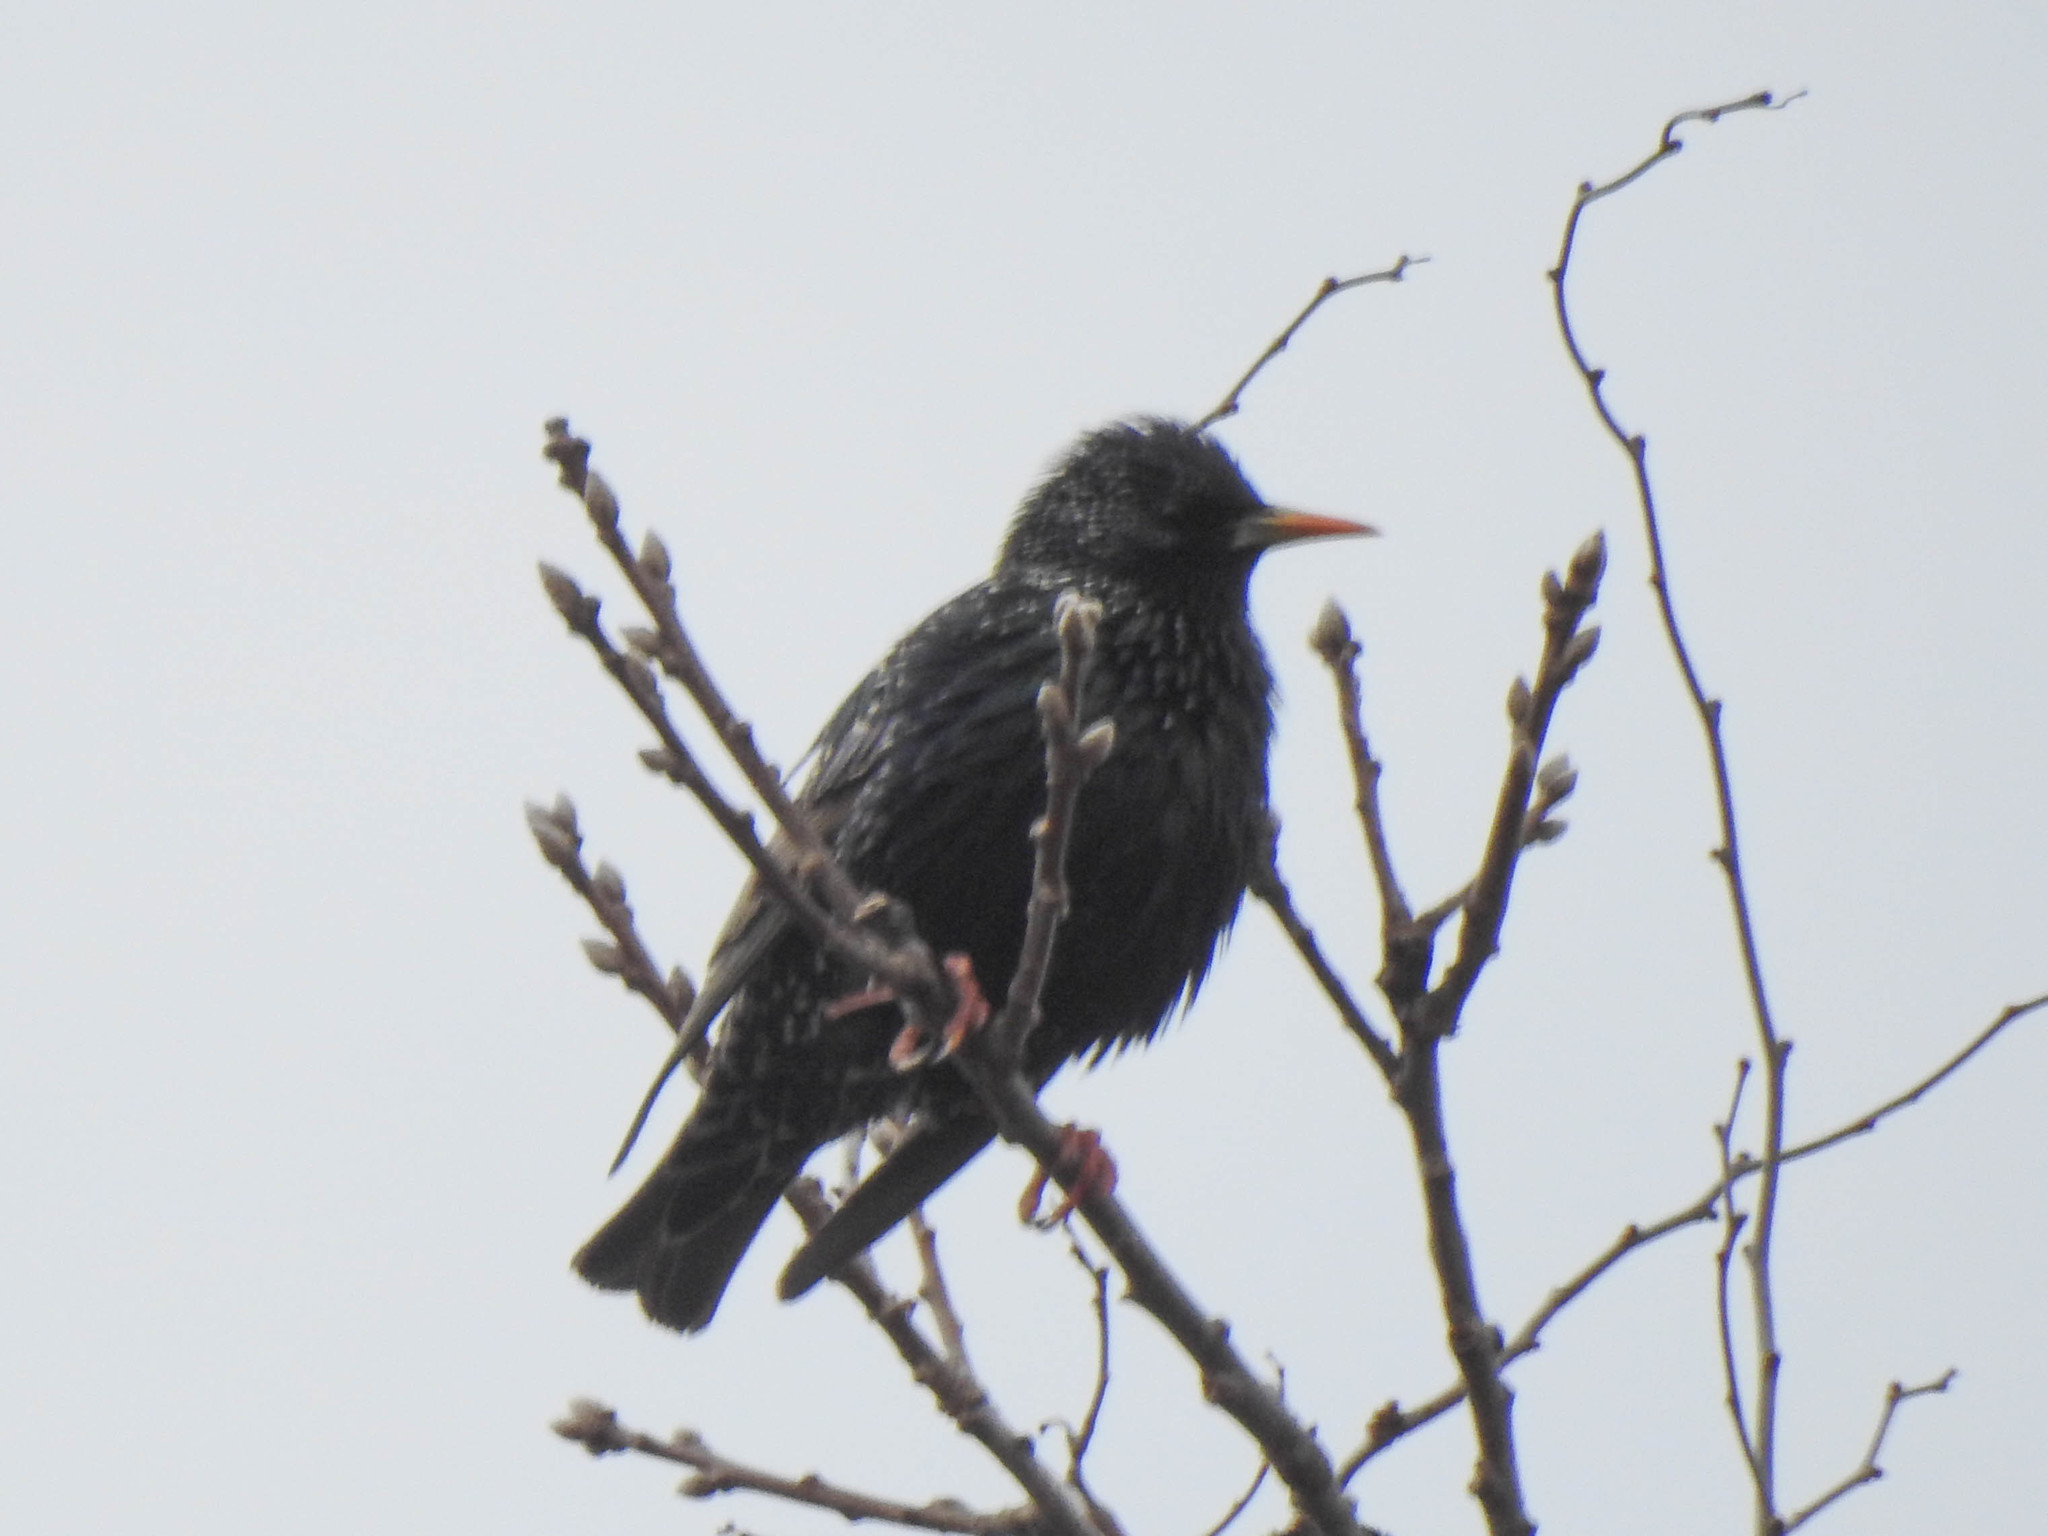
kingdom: Animalia
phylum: Chordata
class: Aves
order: Passeriformes
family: Sturnidae
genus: Sturnus
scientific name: Sturnus vulgaris
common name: Common starling
